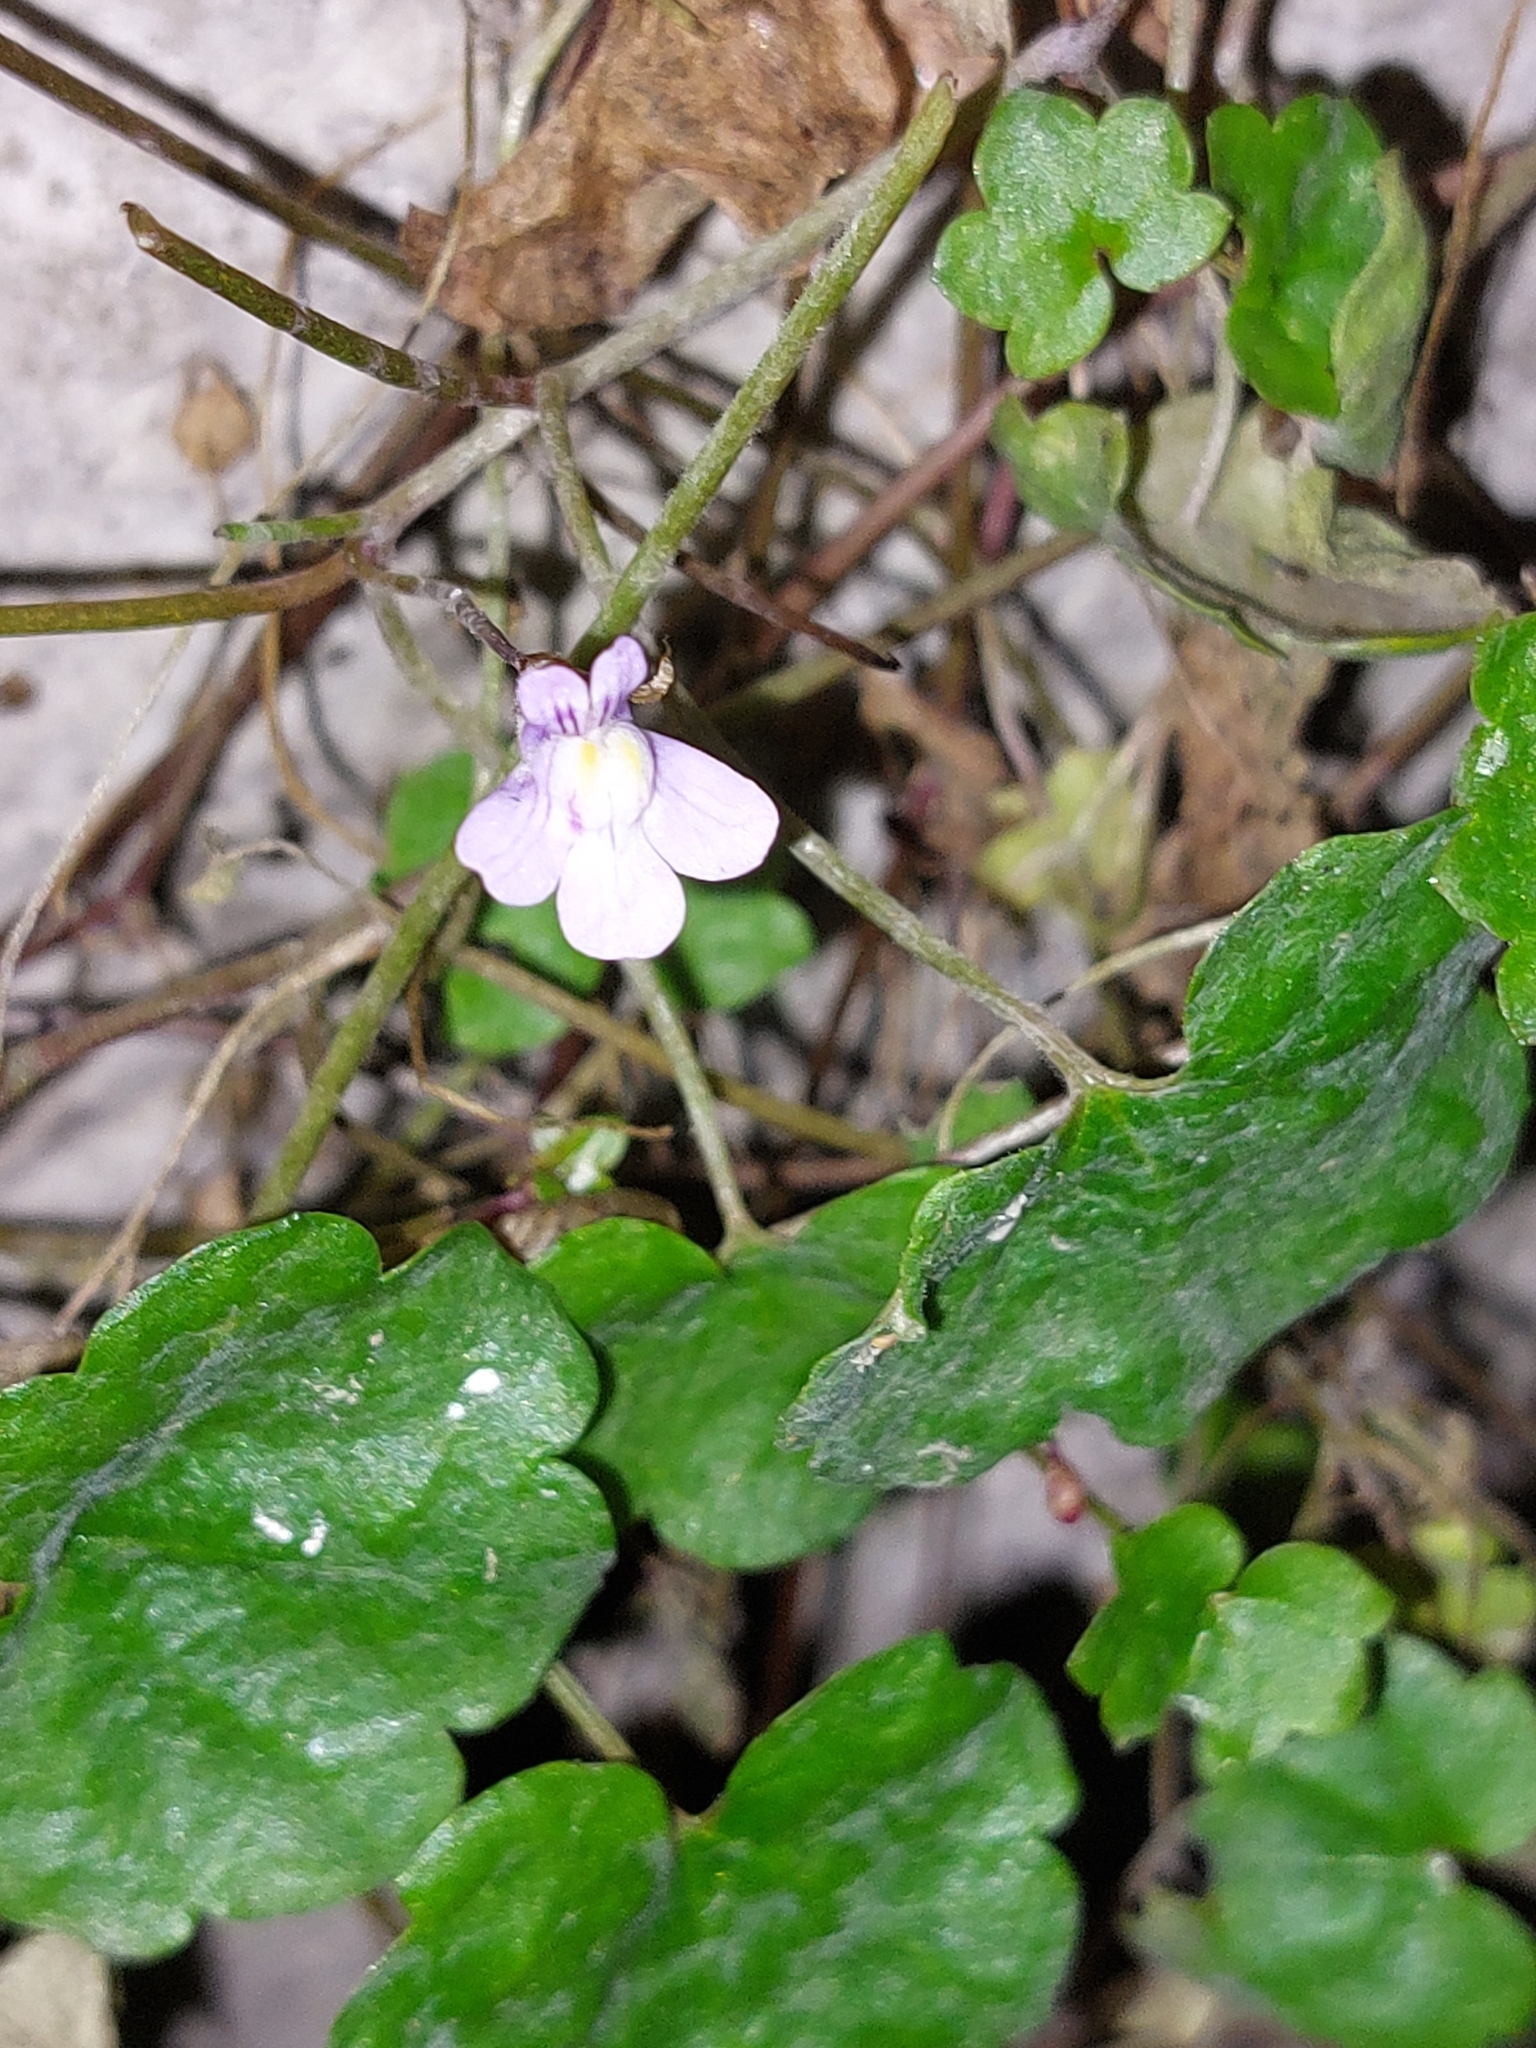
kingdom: Plantae
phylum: Tracheophyta
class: Magnoliopsida
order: Lamiales
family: Plantaginaceae
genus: Cymbalaria
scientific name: Cymbalaria muralis
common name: Ivy-leaved toadflax
